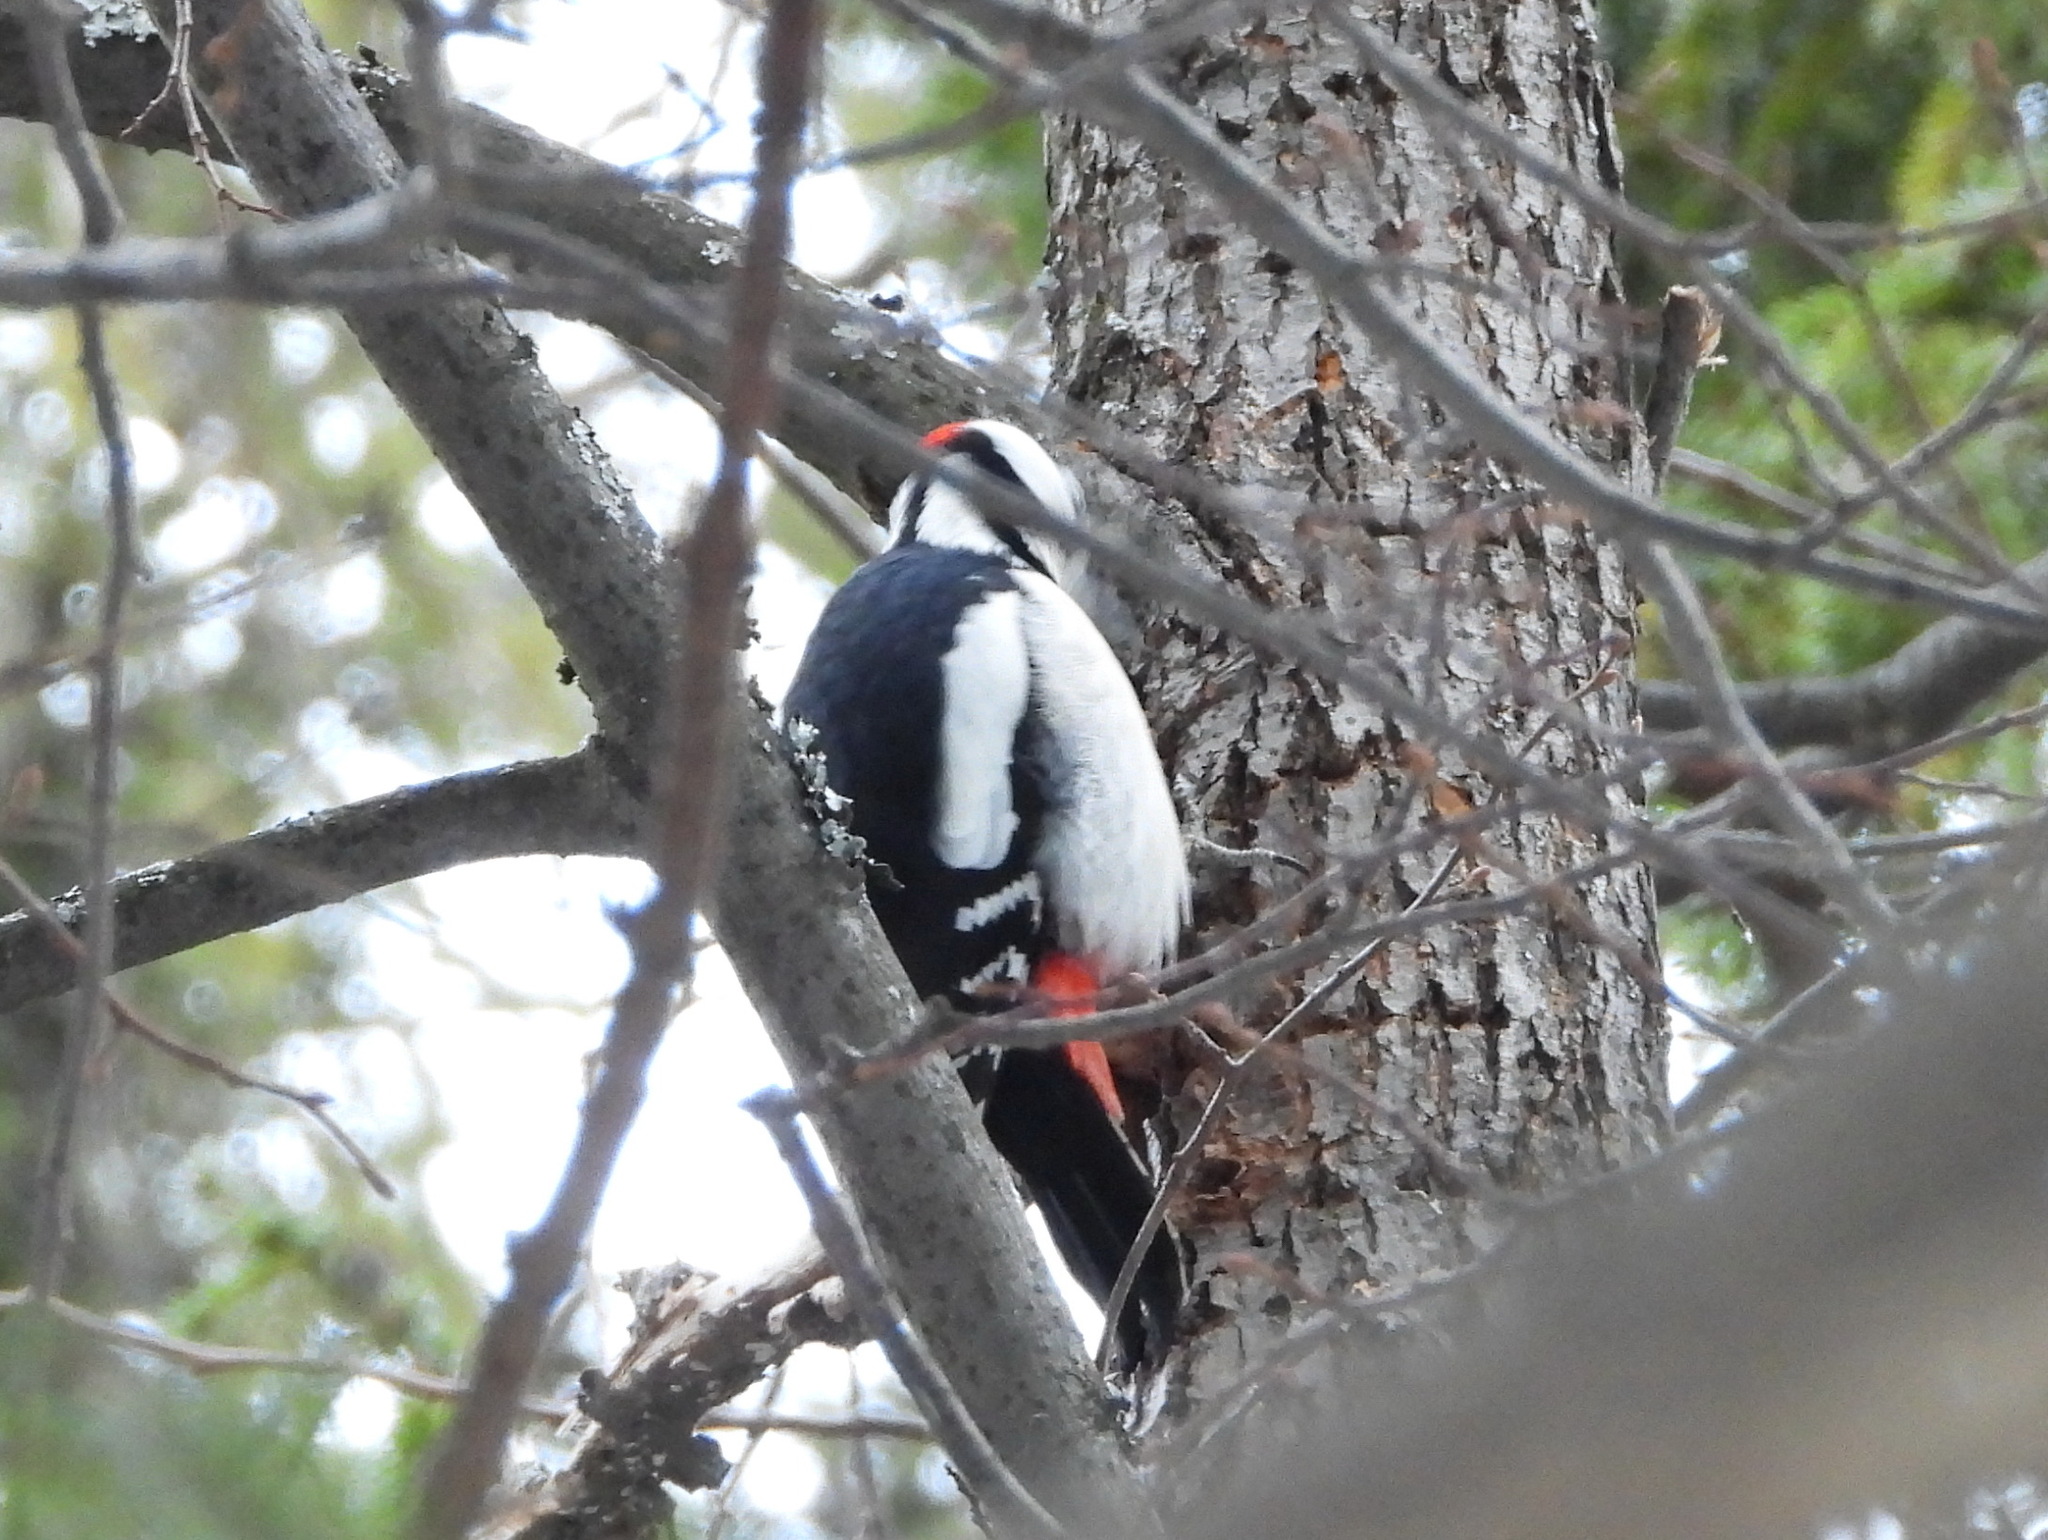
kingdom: Animalia
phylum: Chordata
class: Aves
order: Piciformes
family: Picidae
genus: Dendrocopos
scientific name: Dendrocopos major
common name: Great spotted woodpecker
